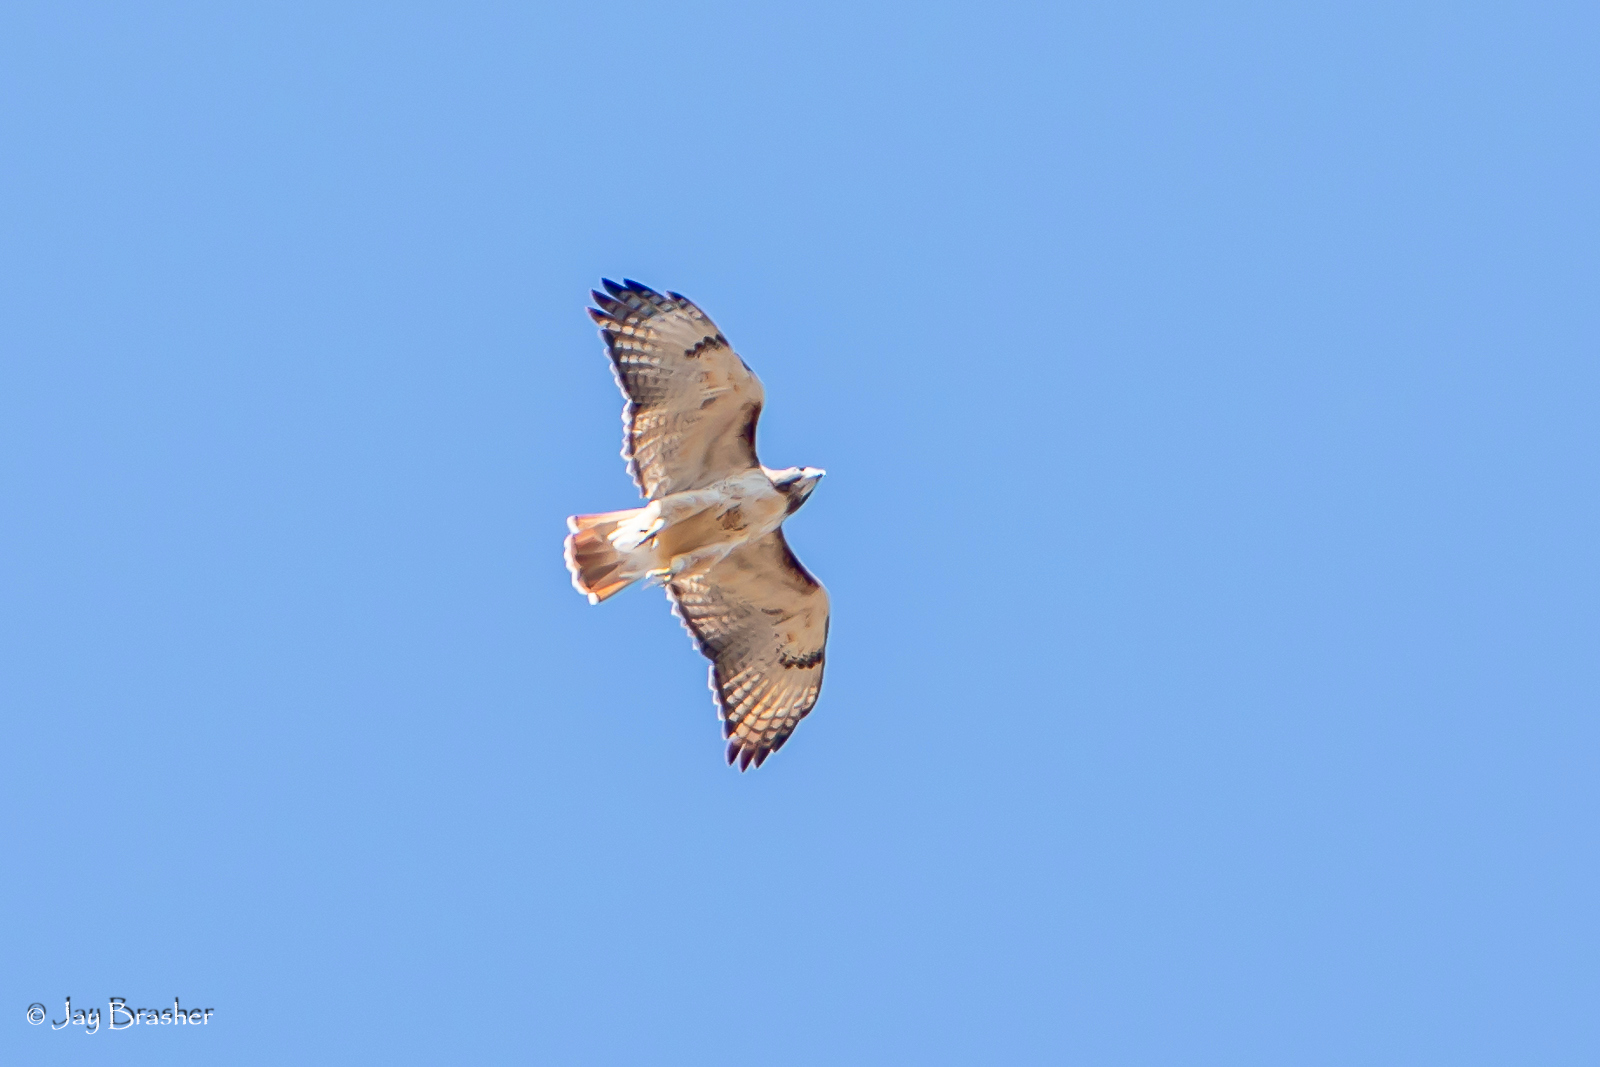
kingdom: Animalia
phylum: Chordata
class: Aves
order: Accipitriformes
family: Accipitridae
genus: Buteo
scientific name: Buteo jamaicensis
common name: Red-tailed hawk
